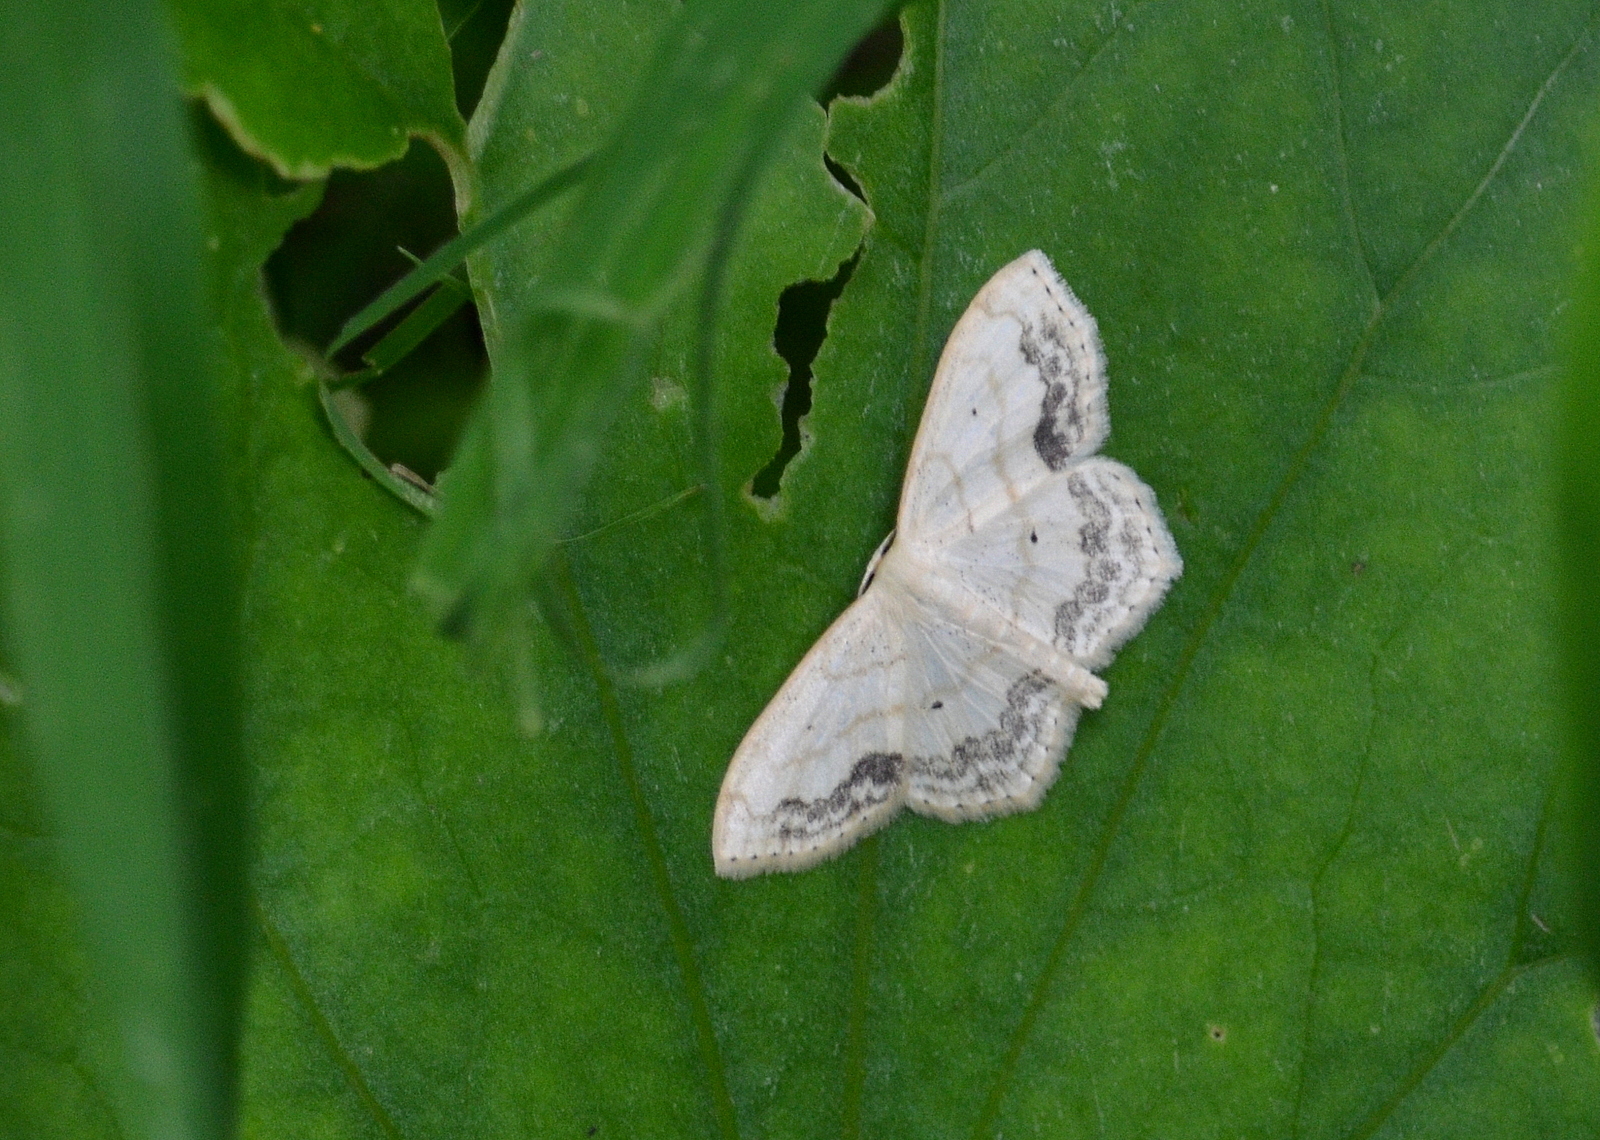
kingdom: Animalia
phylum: Arthropoda
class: Insecta
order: Lepidoptera
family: Geometridae
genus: Scopula
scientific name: Scopula limboundata
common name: Large lace border
